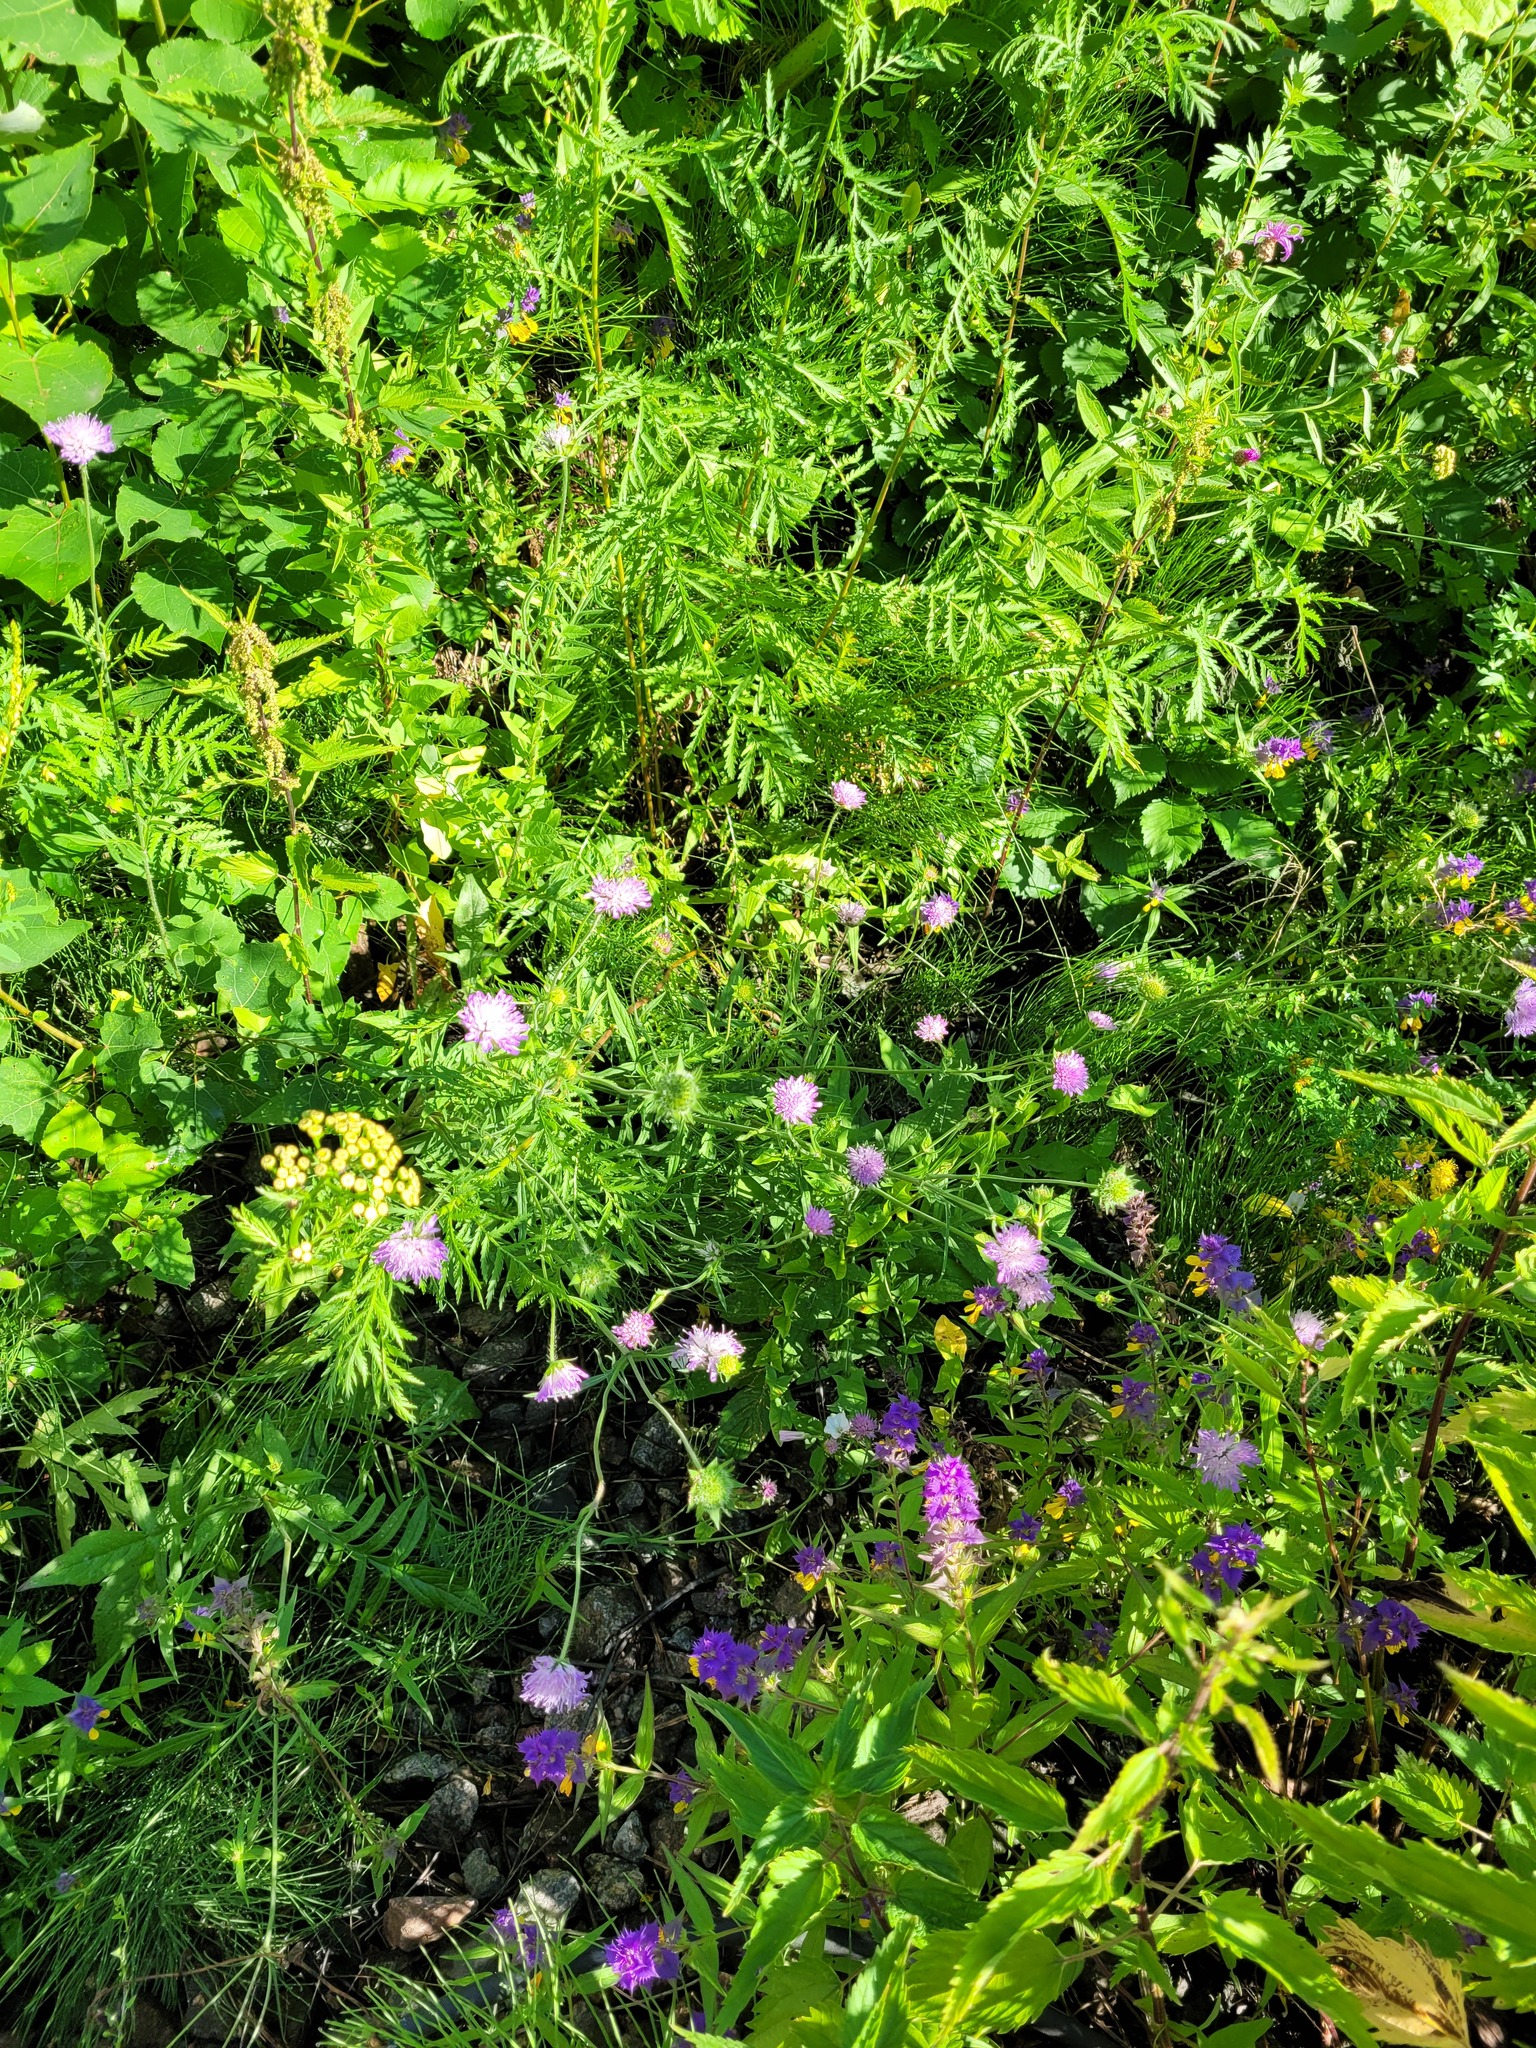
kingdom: Plantae
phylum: Tracheophyta
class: Magnoliopsida
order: Dipsacales
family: Caprifoliaceae
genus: Knautia
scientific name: Knautia arvensis
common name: Field scabiosa
